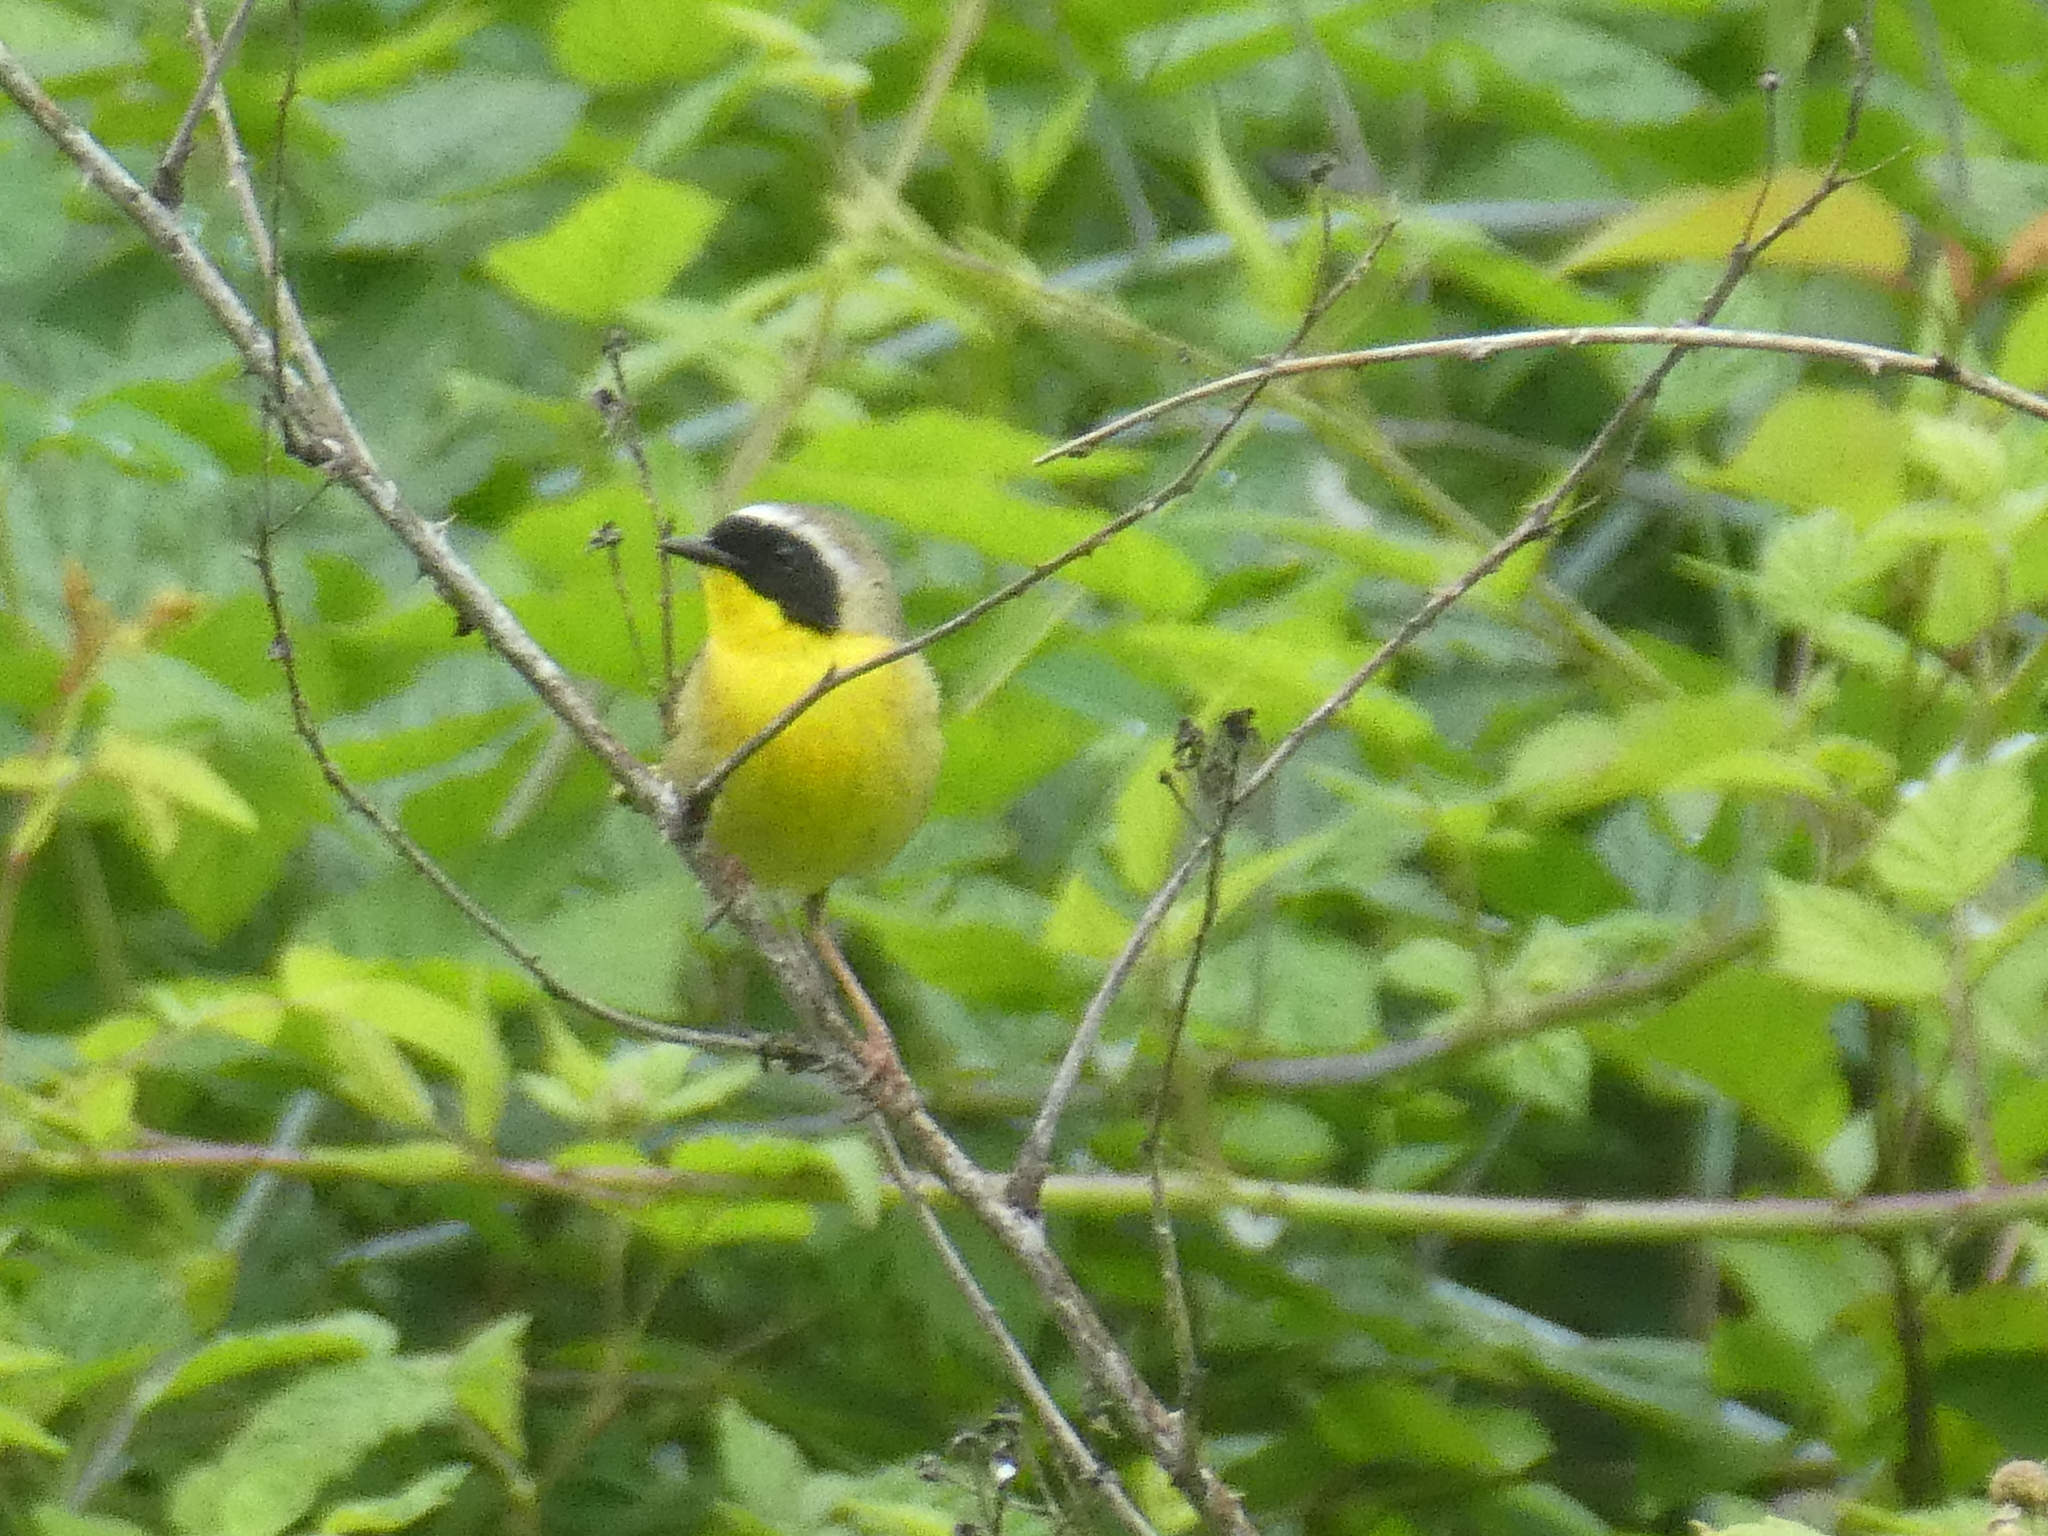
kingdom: Animalia
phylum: Chordata
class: Aves
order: Passeriformes
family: Parulidae
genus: Geothlypis
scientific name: Geothlypis trichas
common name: Common yellowthroat
